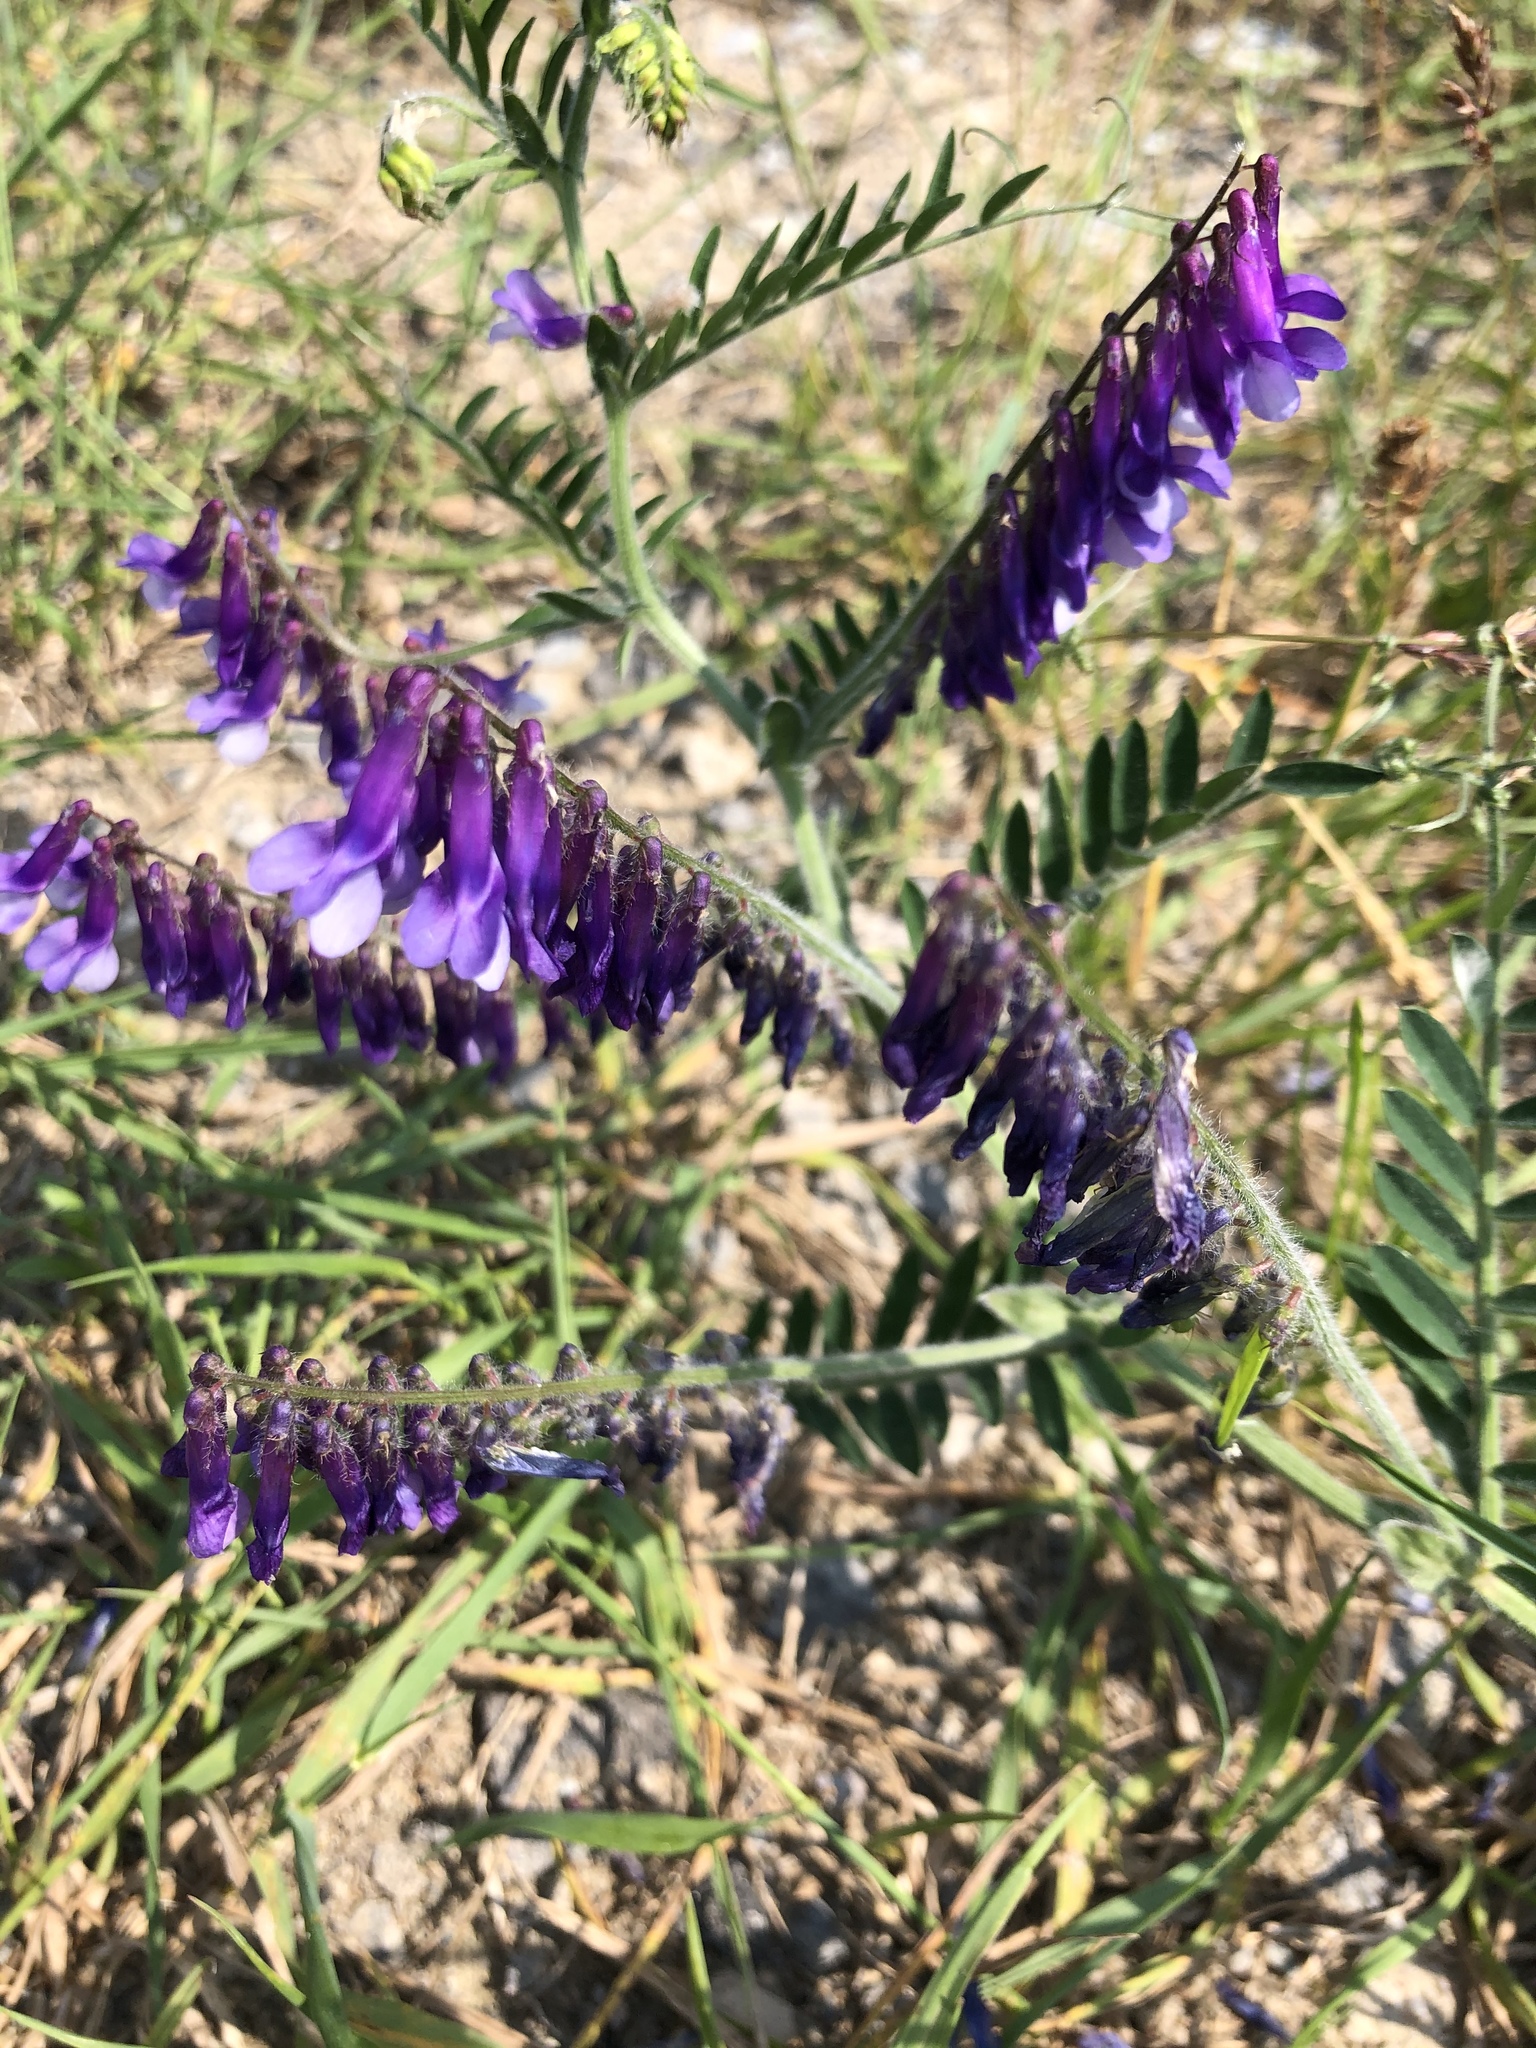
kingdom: Plantae
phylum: Tracheophyta
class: Magnoliopsida
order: Fabales
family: Fabaceae
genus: Vicia
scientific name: Vicia villosa
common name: Fodder vetch
